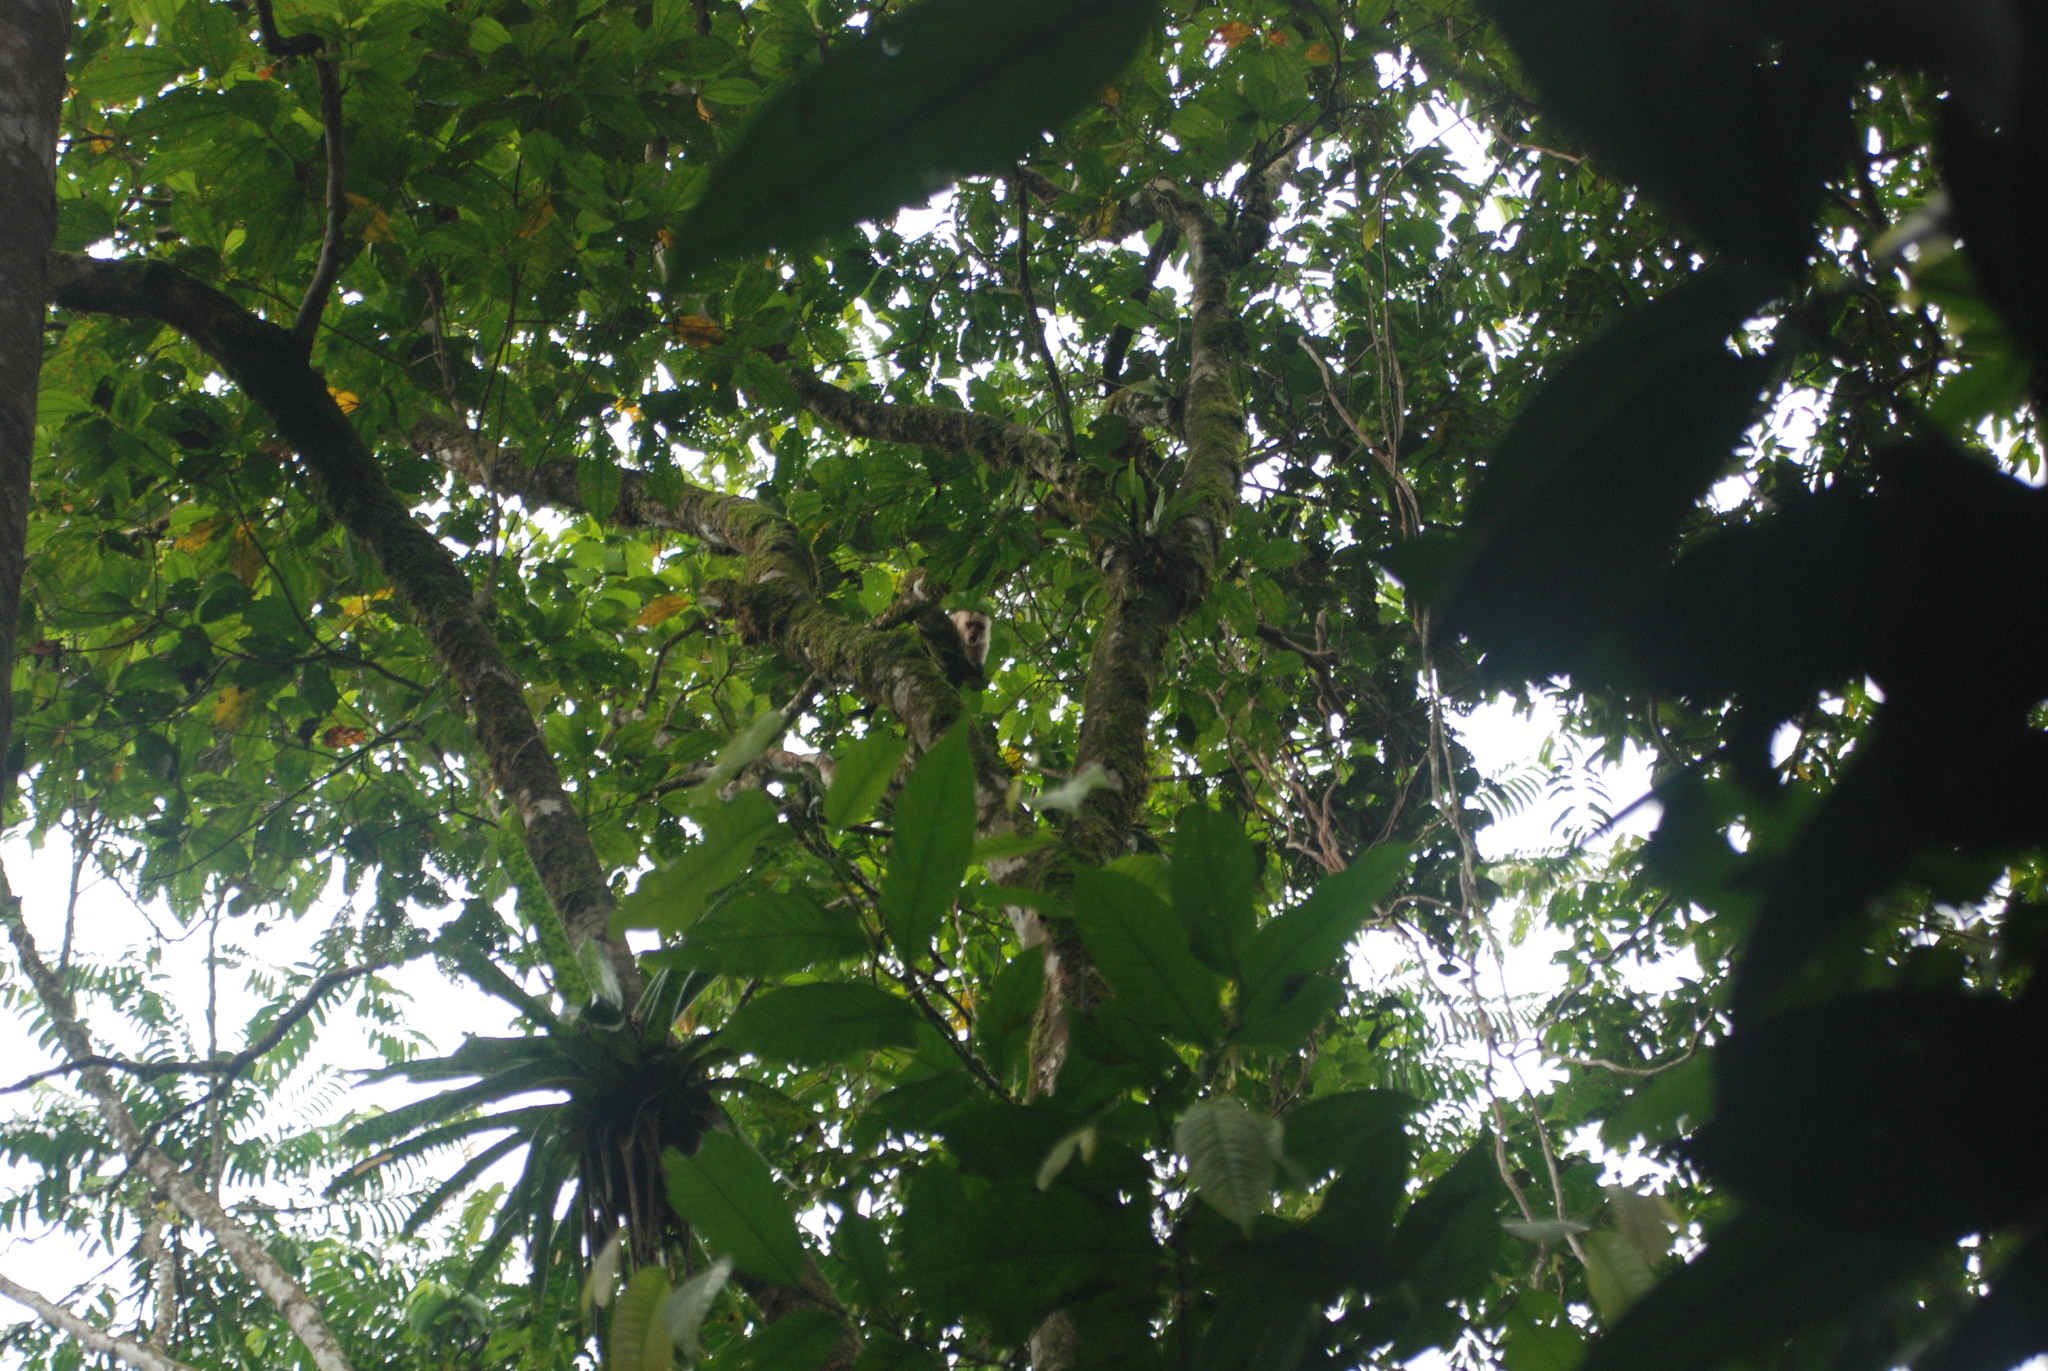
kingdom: Animalia
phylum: Chordata
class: Mammalia
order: Primates
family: Cebidae
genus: Cebus
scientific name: Cebus imitator
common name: Panamanian white-faced capuchin
